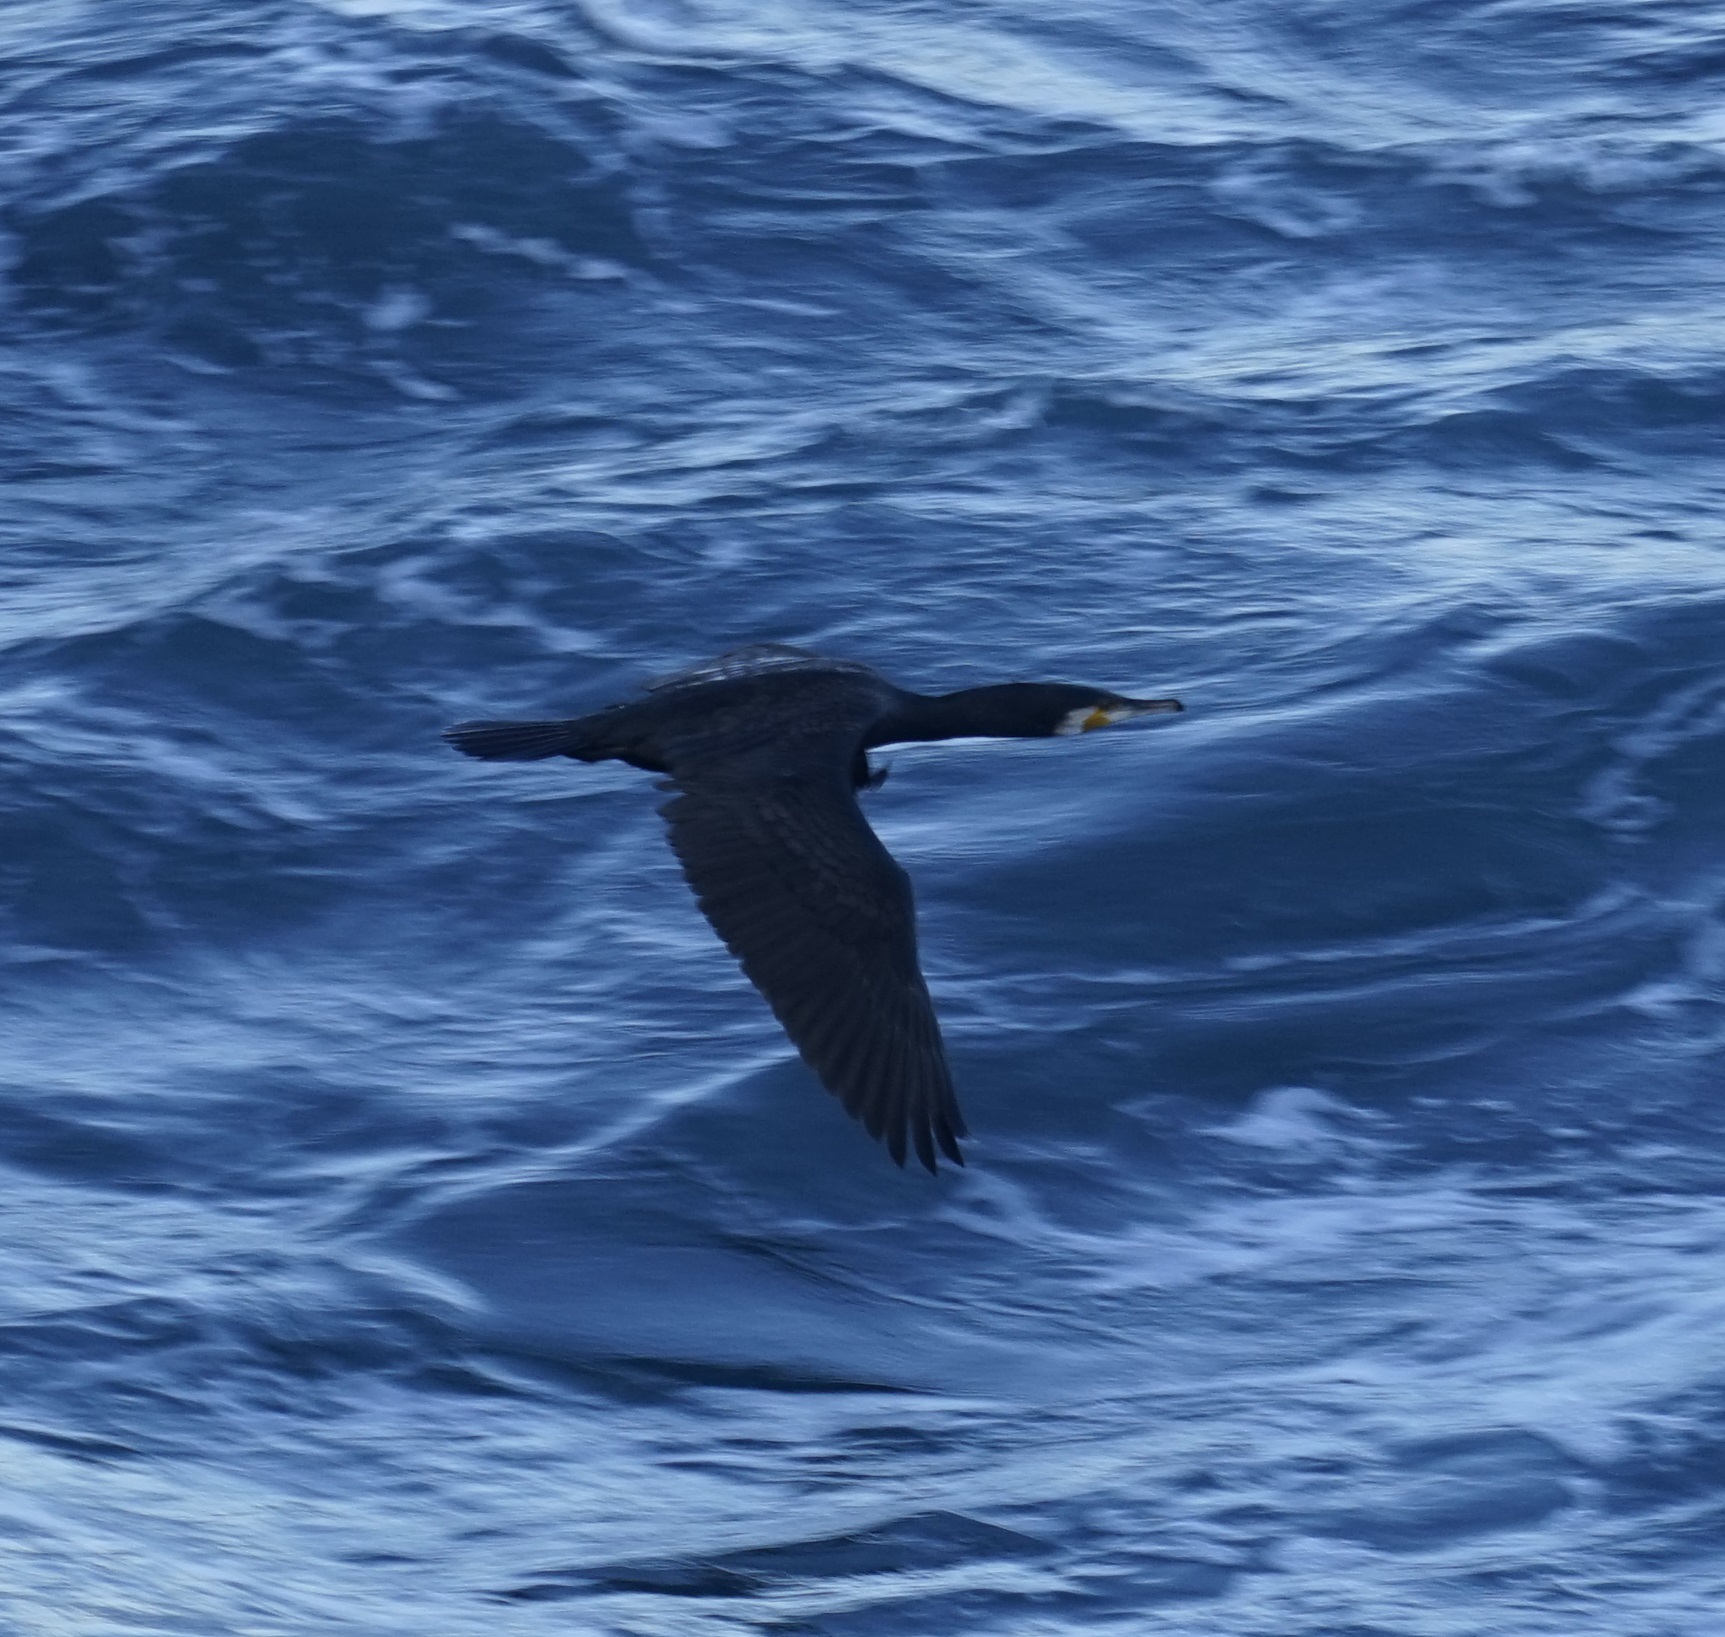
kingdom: Animalia
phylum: Chordata
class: Aves
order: Suliformes
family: Phalacrocoracidae
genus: Phalacrocorax
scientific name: Phalacrocorax carbo
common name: Great cormorant
